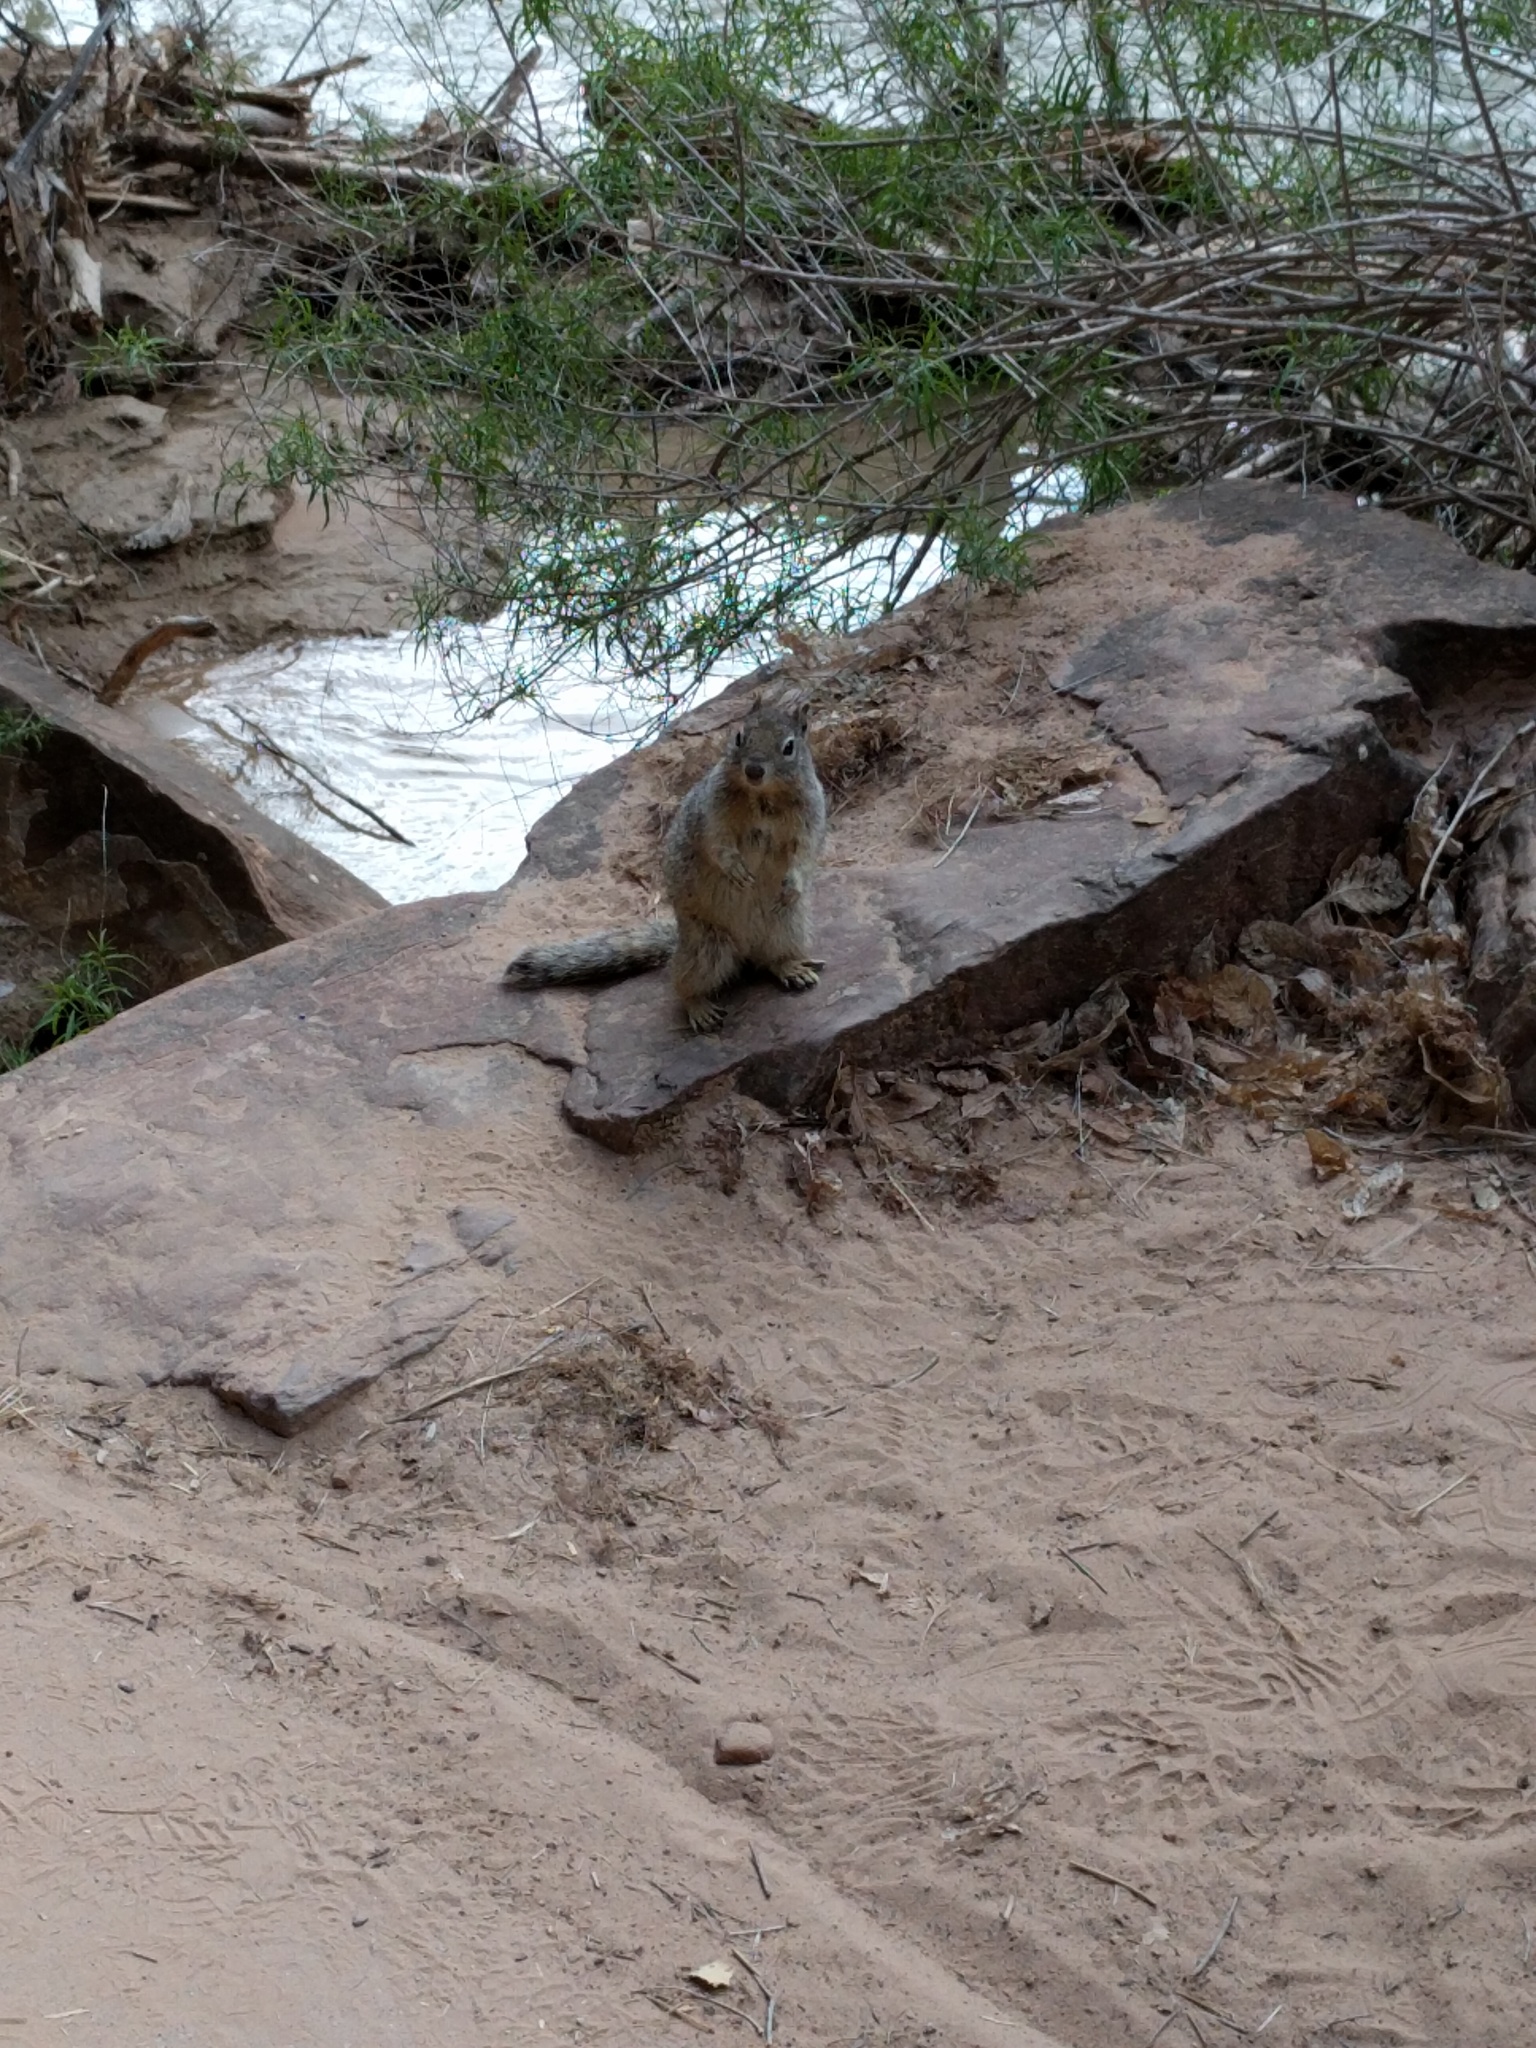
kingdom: Animalia
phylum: Chordata
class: Mammalia
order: Rodentia
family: Sciuridae
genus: Otospermophilus
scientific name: Otospermophilus variegatus
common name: Rock squirrel
